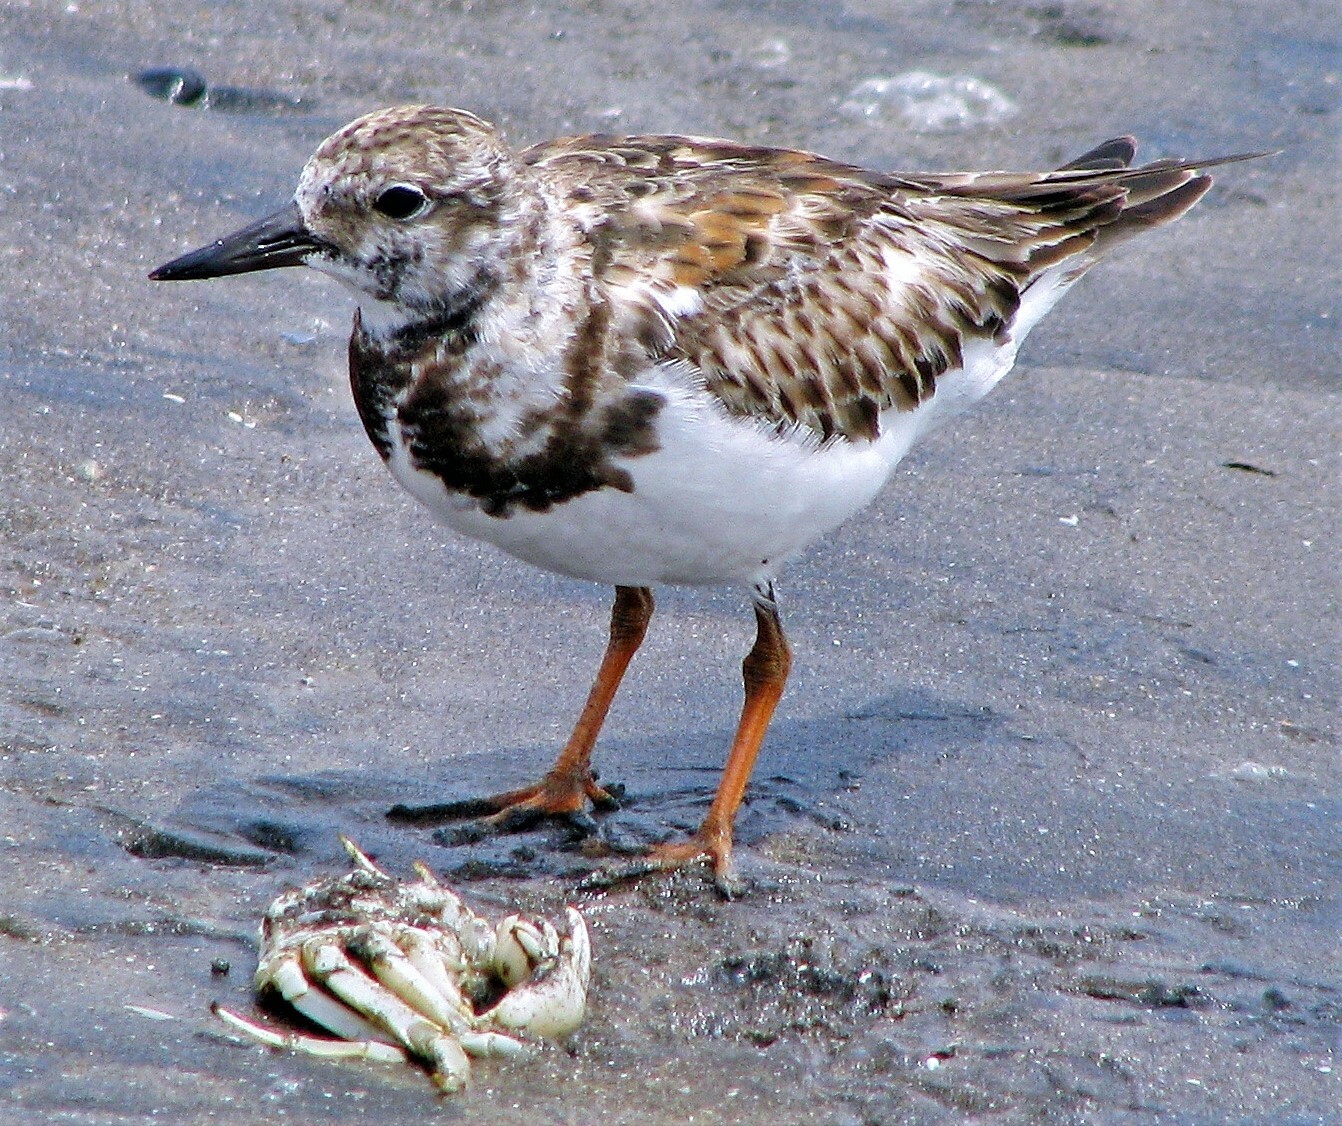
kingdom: Animalia
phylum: Chordata
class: Aves
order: Charadriiformes
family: Scolopacidae
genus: Arenaria
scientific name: Arenaria interpres
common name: Ruddy turnstone
